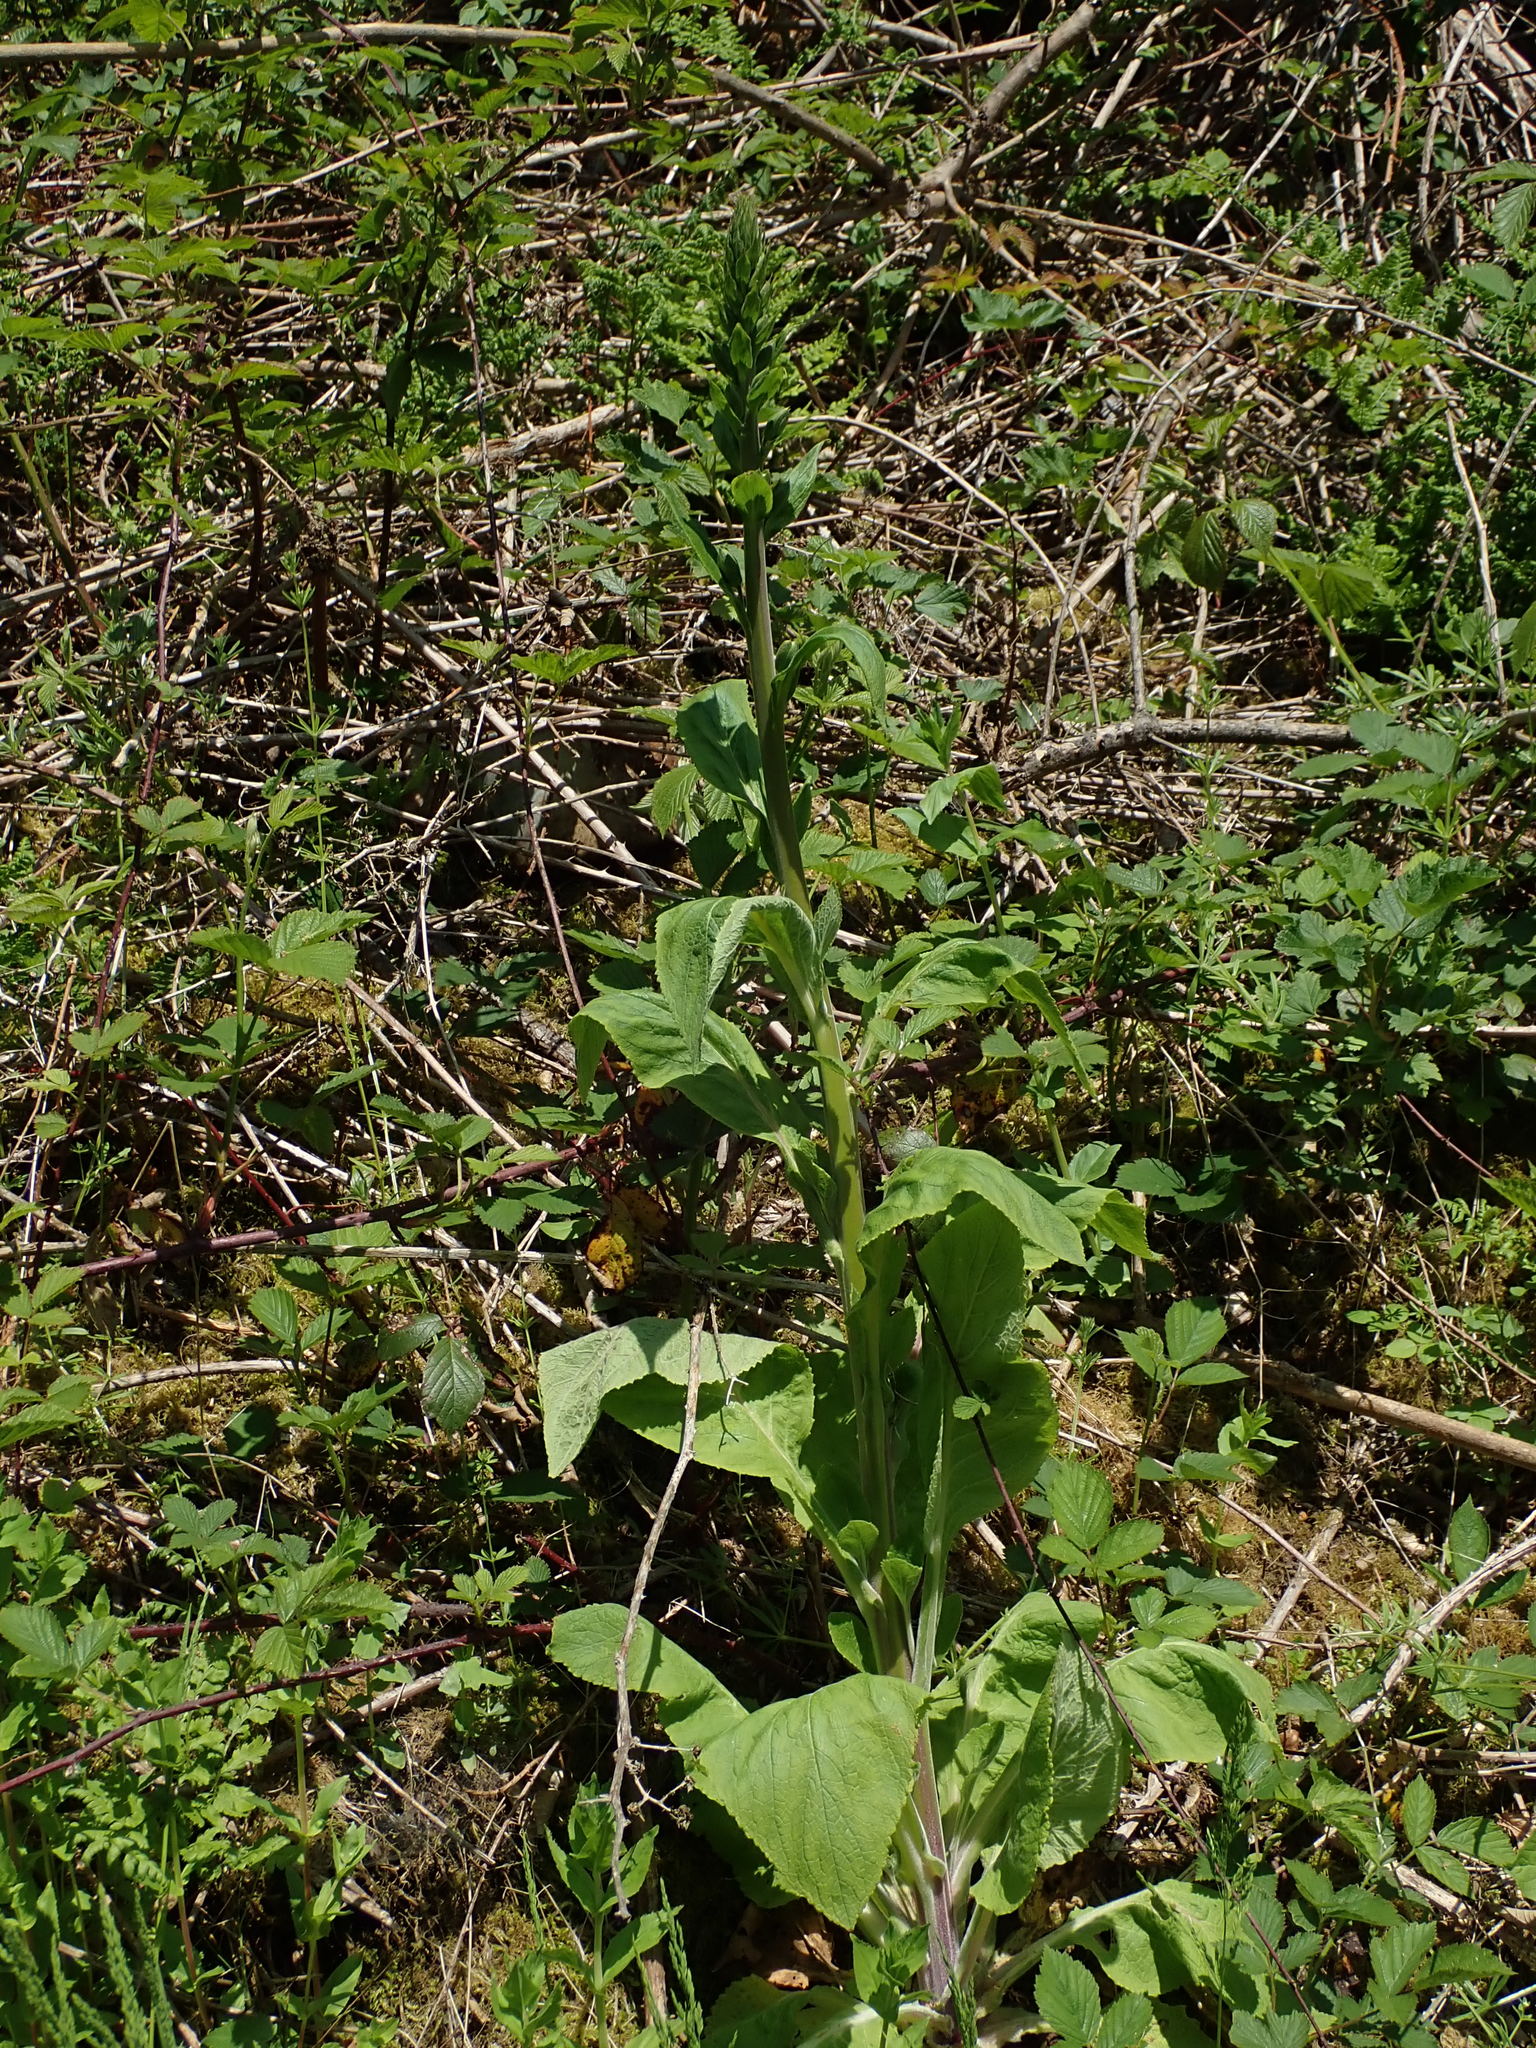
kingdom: Plantae
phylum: Tracheophyta
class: Magnoliopsida
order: Lamiales
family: Plantaginaceae
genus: Digitalis
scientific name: Digitalis purpurea
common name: Foxglove
